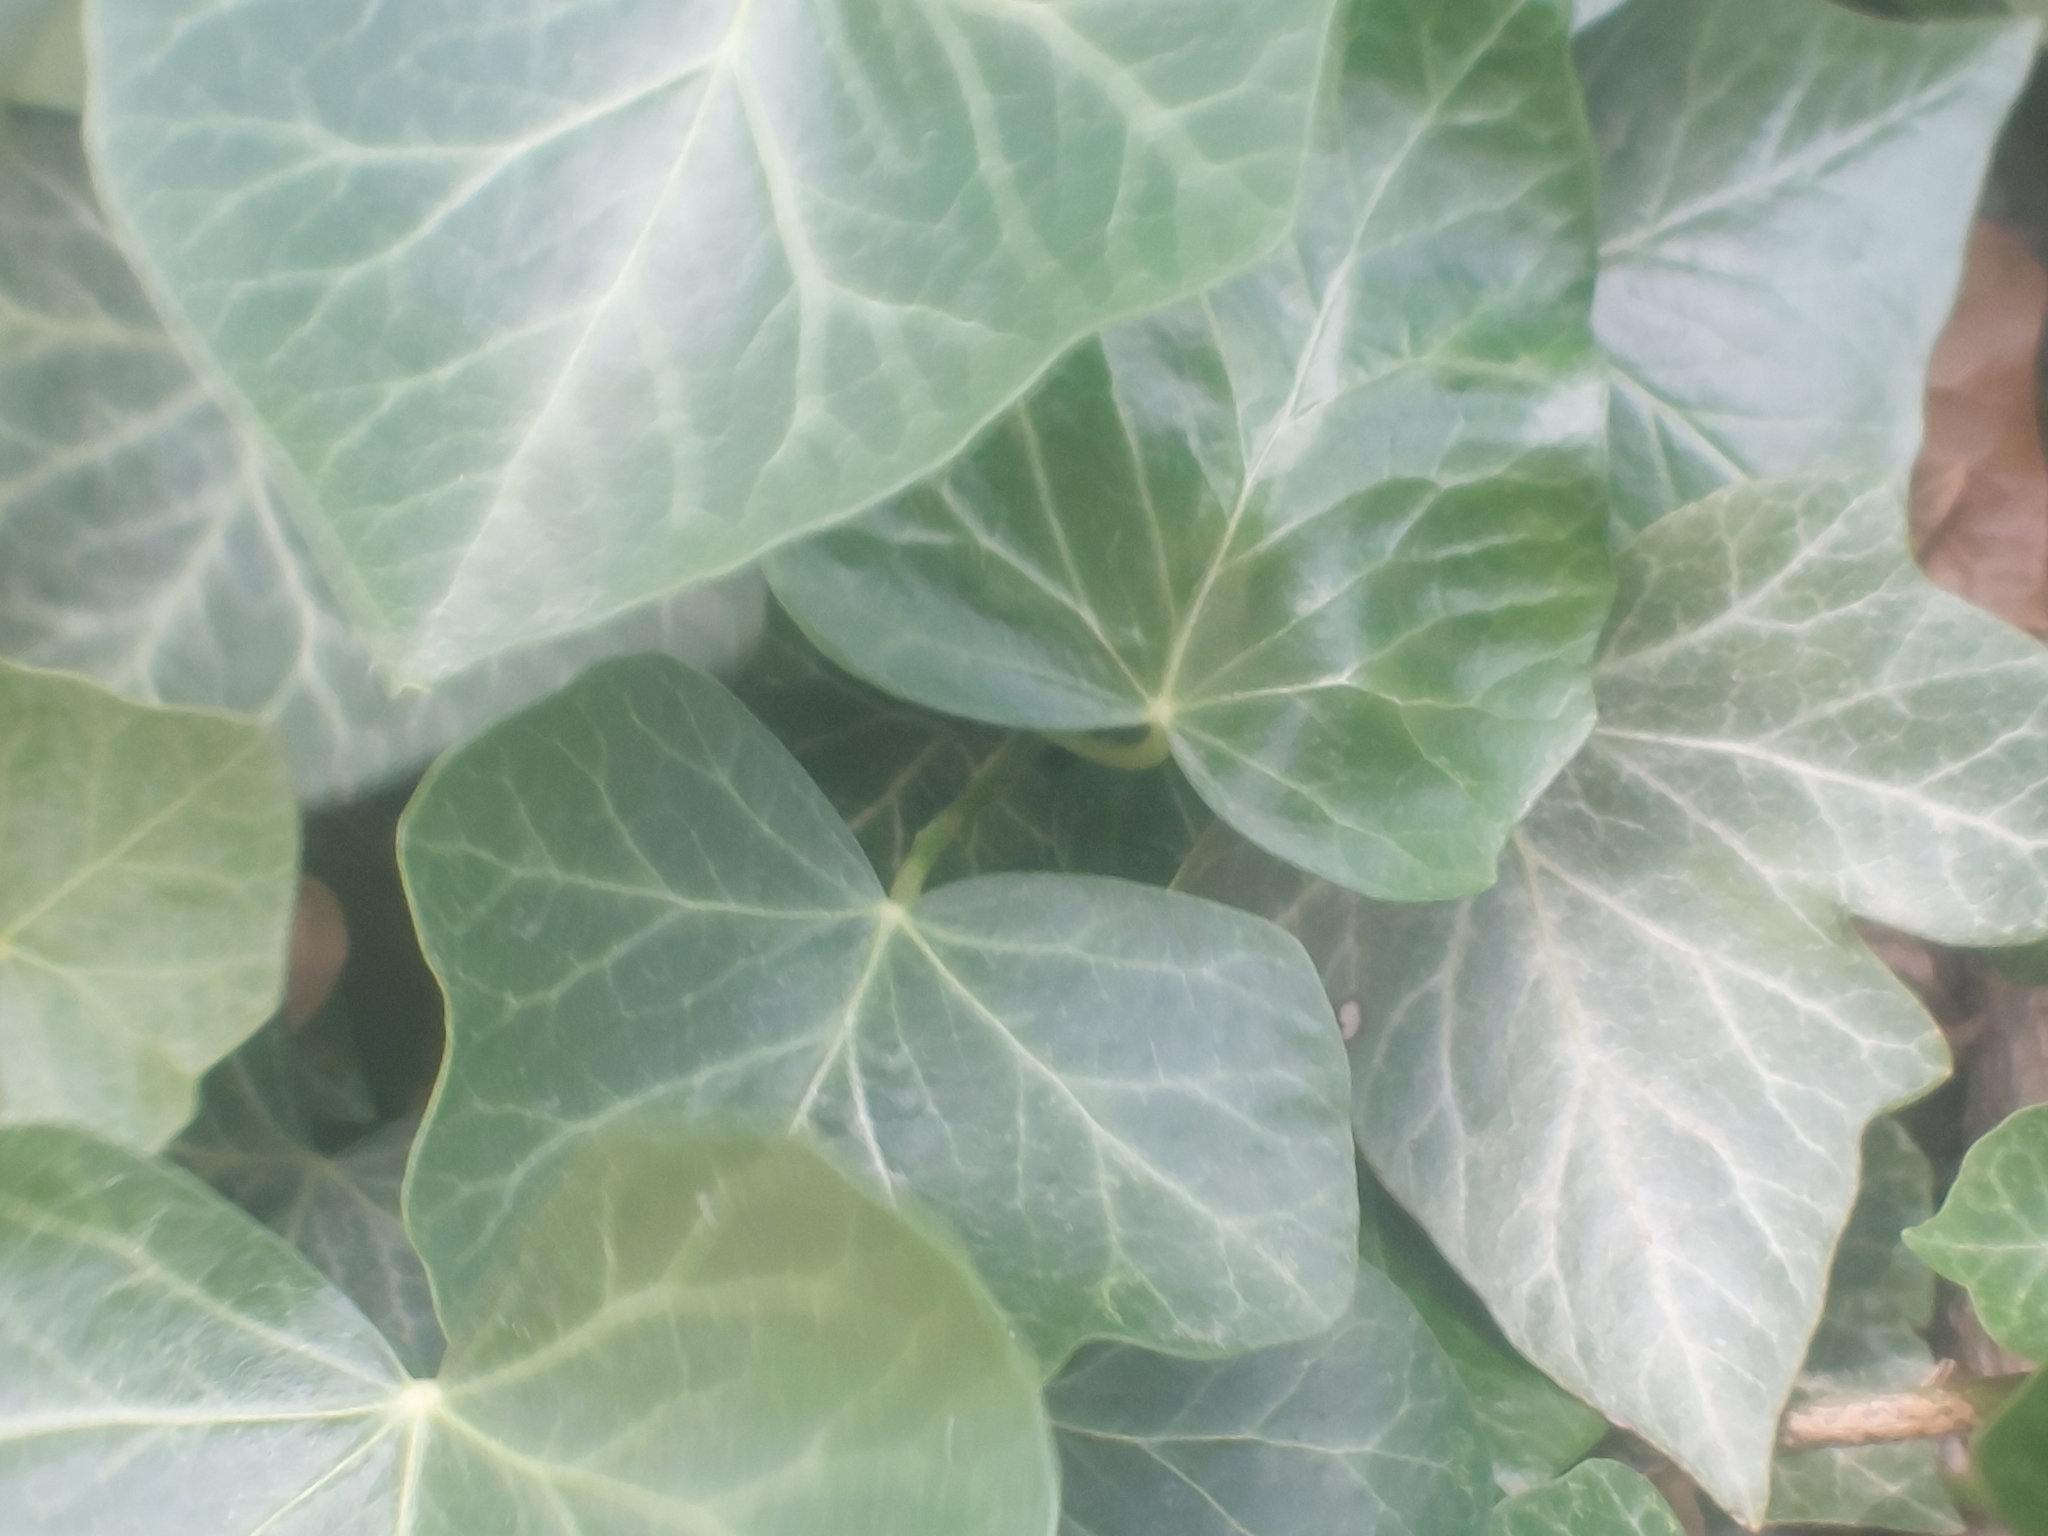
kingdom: Plantae
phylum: Tracheophyta
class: Magnoliopsida
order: Apiales
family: Araliaceae
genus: Hedera
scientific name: Hedera helix
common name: Ivy
